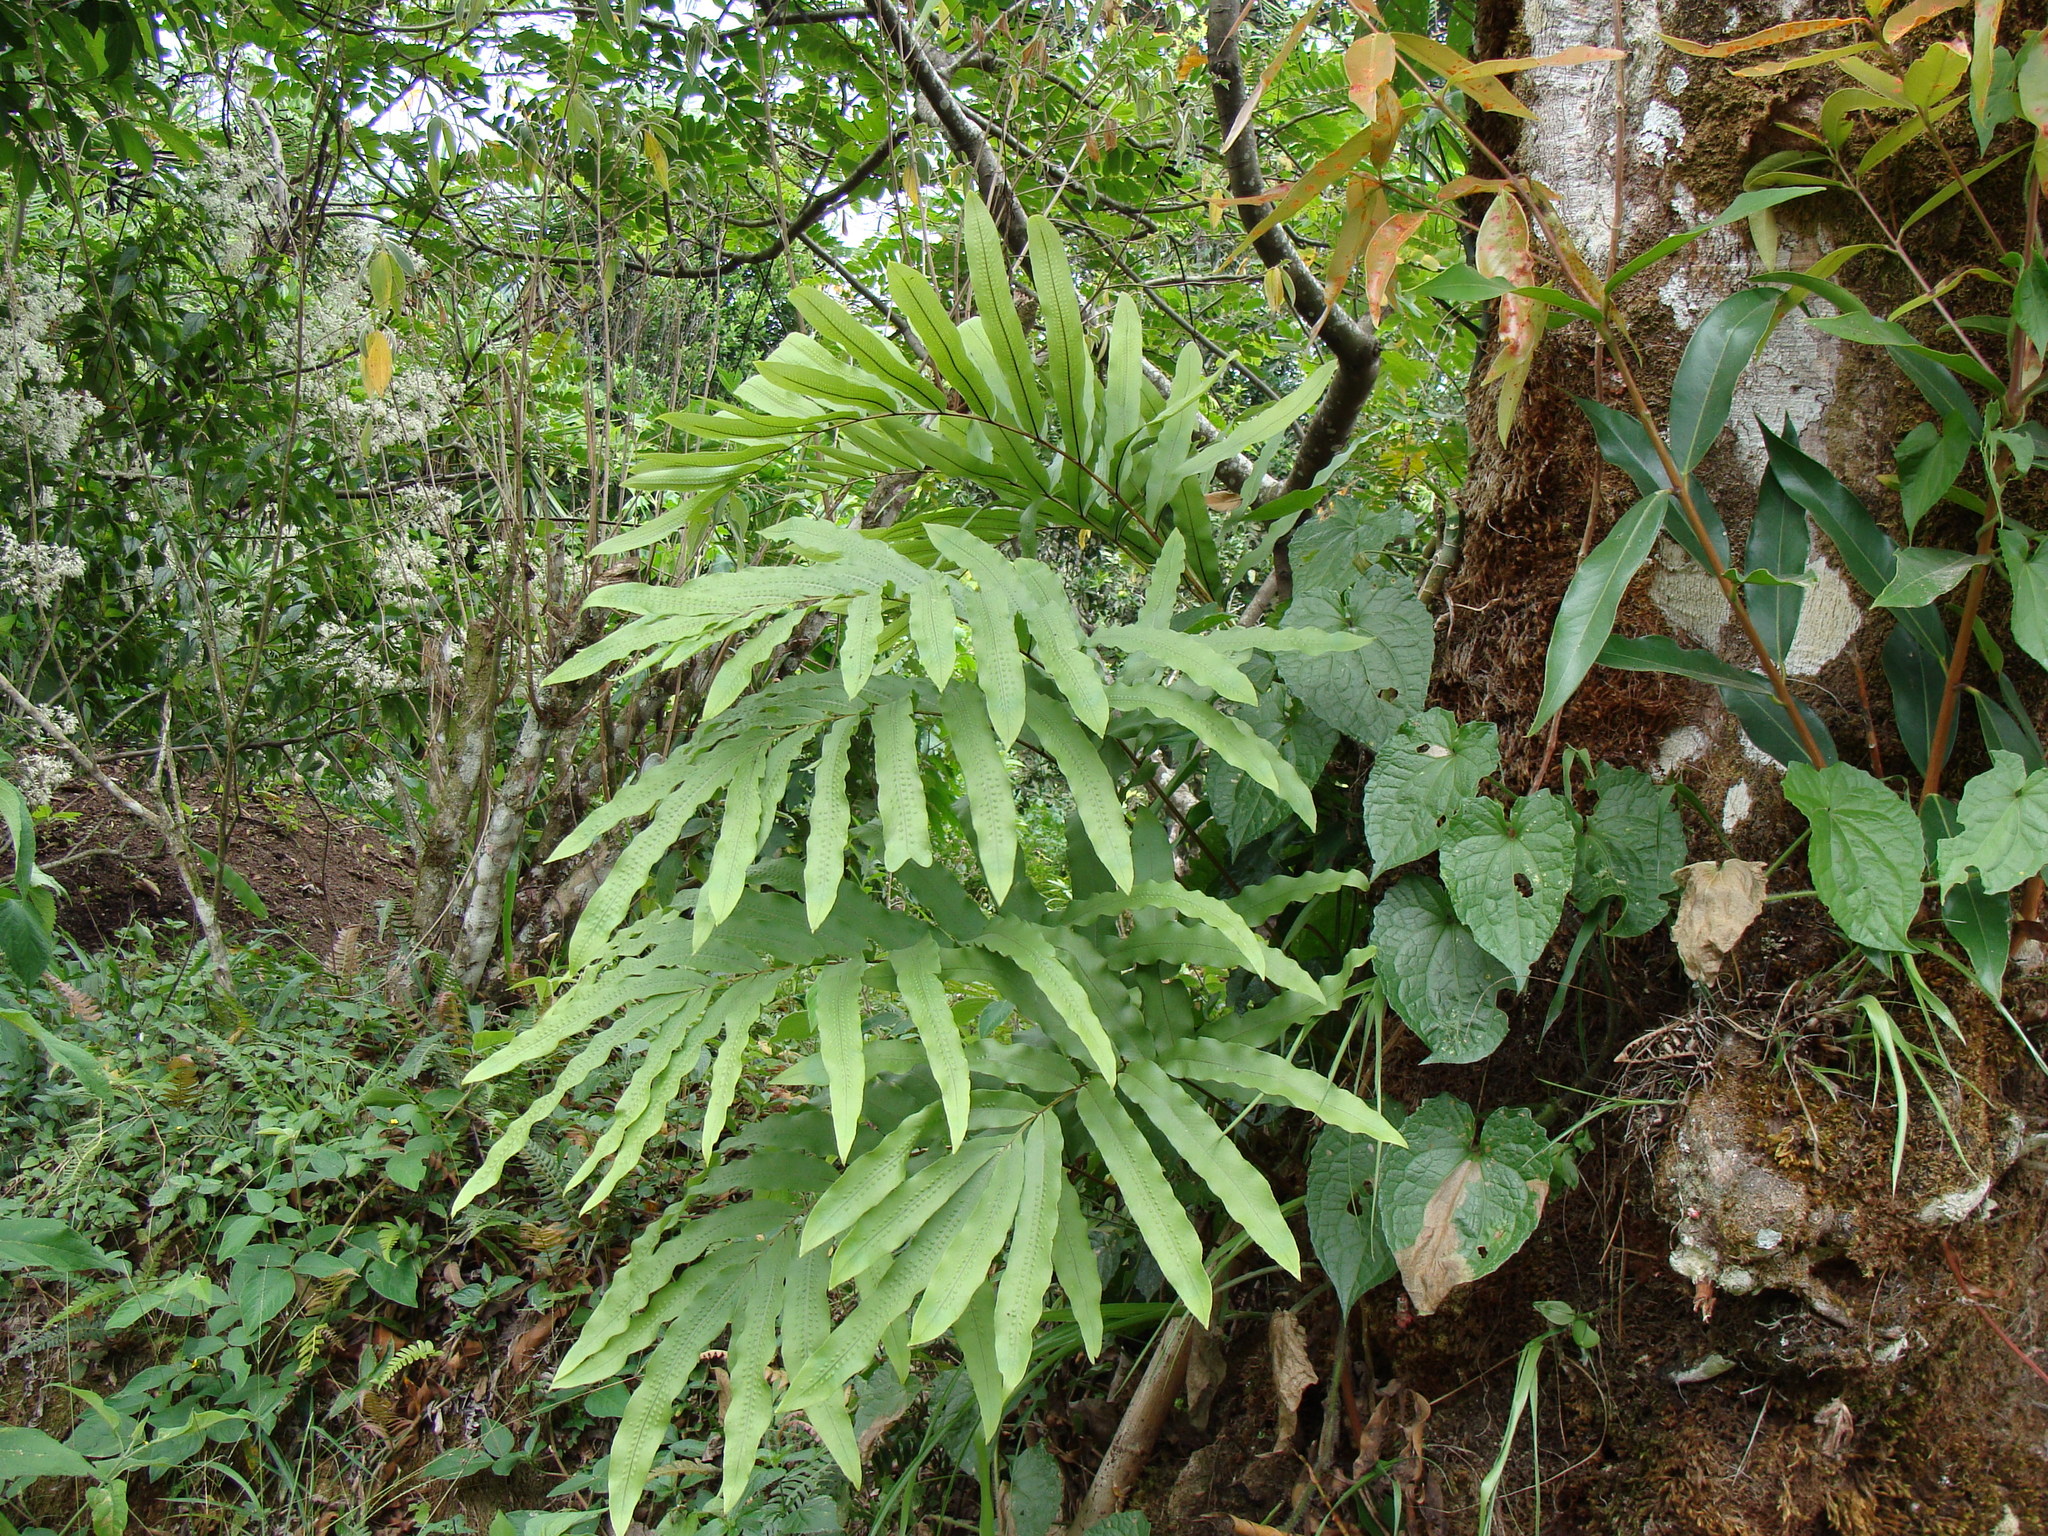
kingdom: Plantae
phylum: Tracheophyta
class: Polypodiopsida
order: Polypodiales
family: Polypodiaceae
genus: Phlebodium
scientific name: Phlebodium aureum
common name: Gold-foot fern
